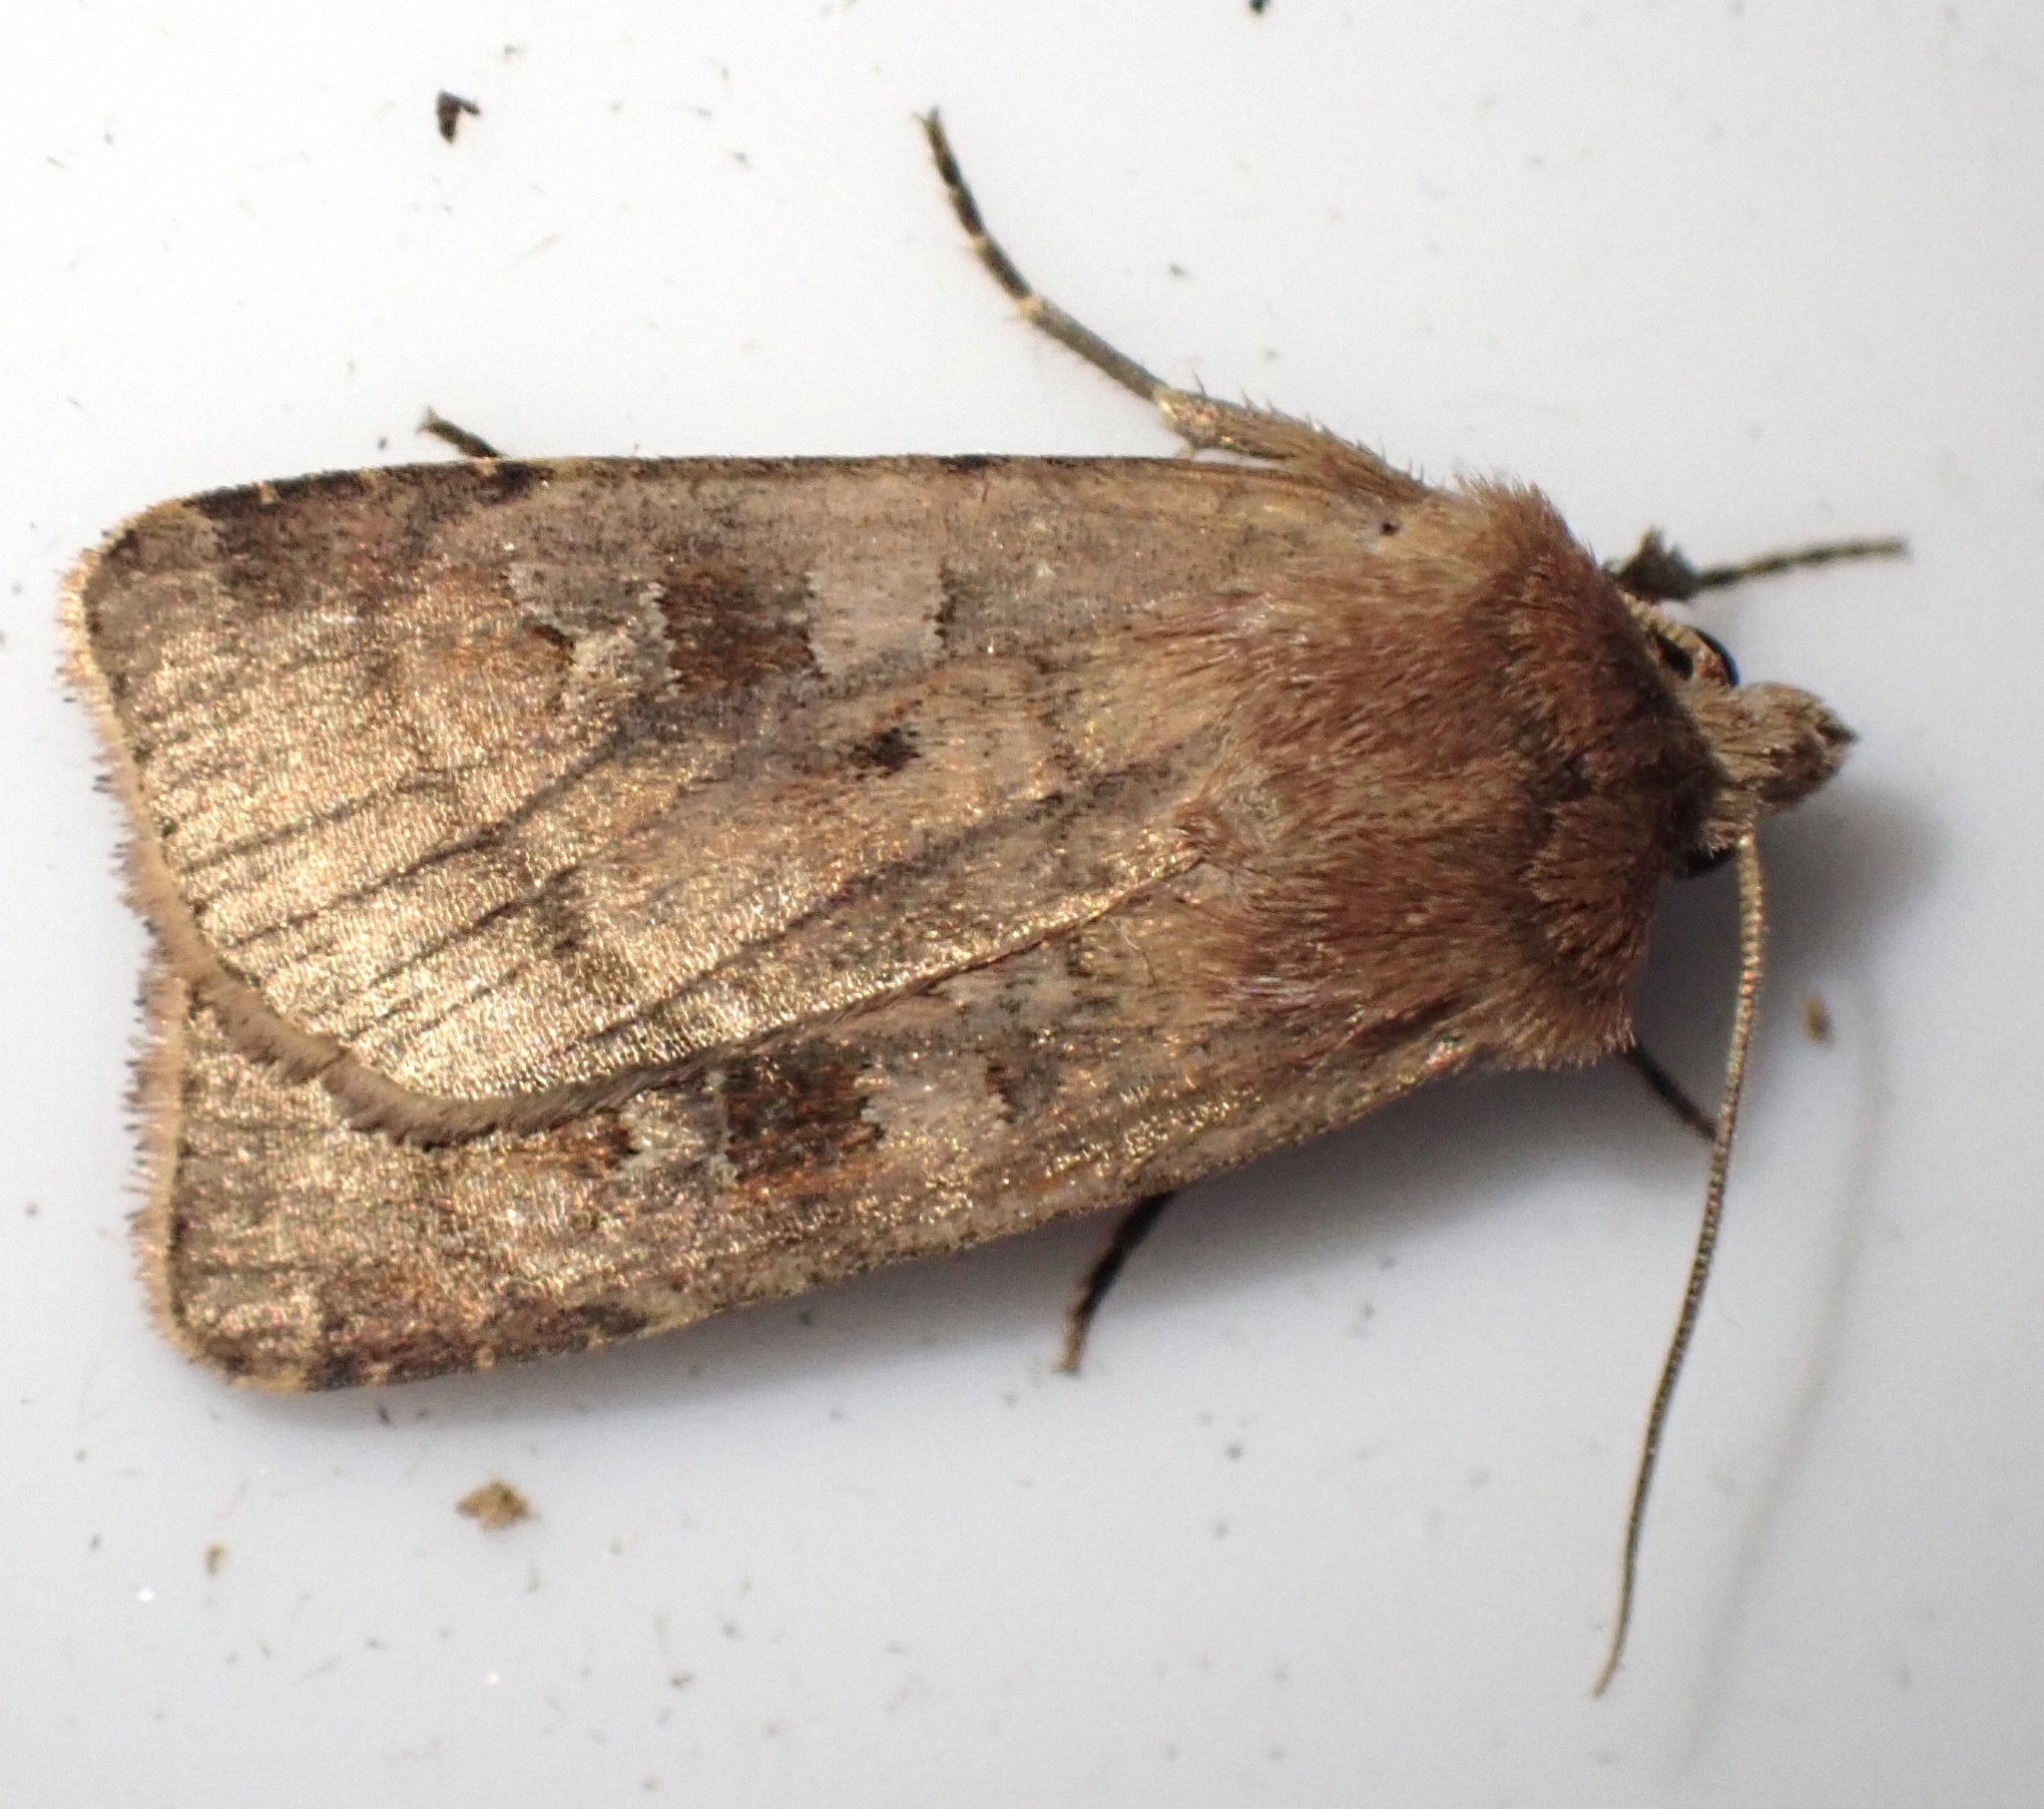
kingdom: Animalia
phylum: Arthropoda
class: Insecta
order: Lepidoptera
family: Noctuidae
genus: Diarsia
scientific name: Diarsia rubi
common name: Small square-spot
